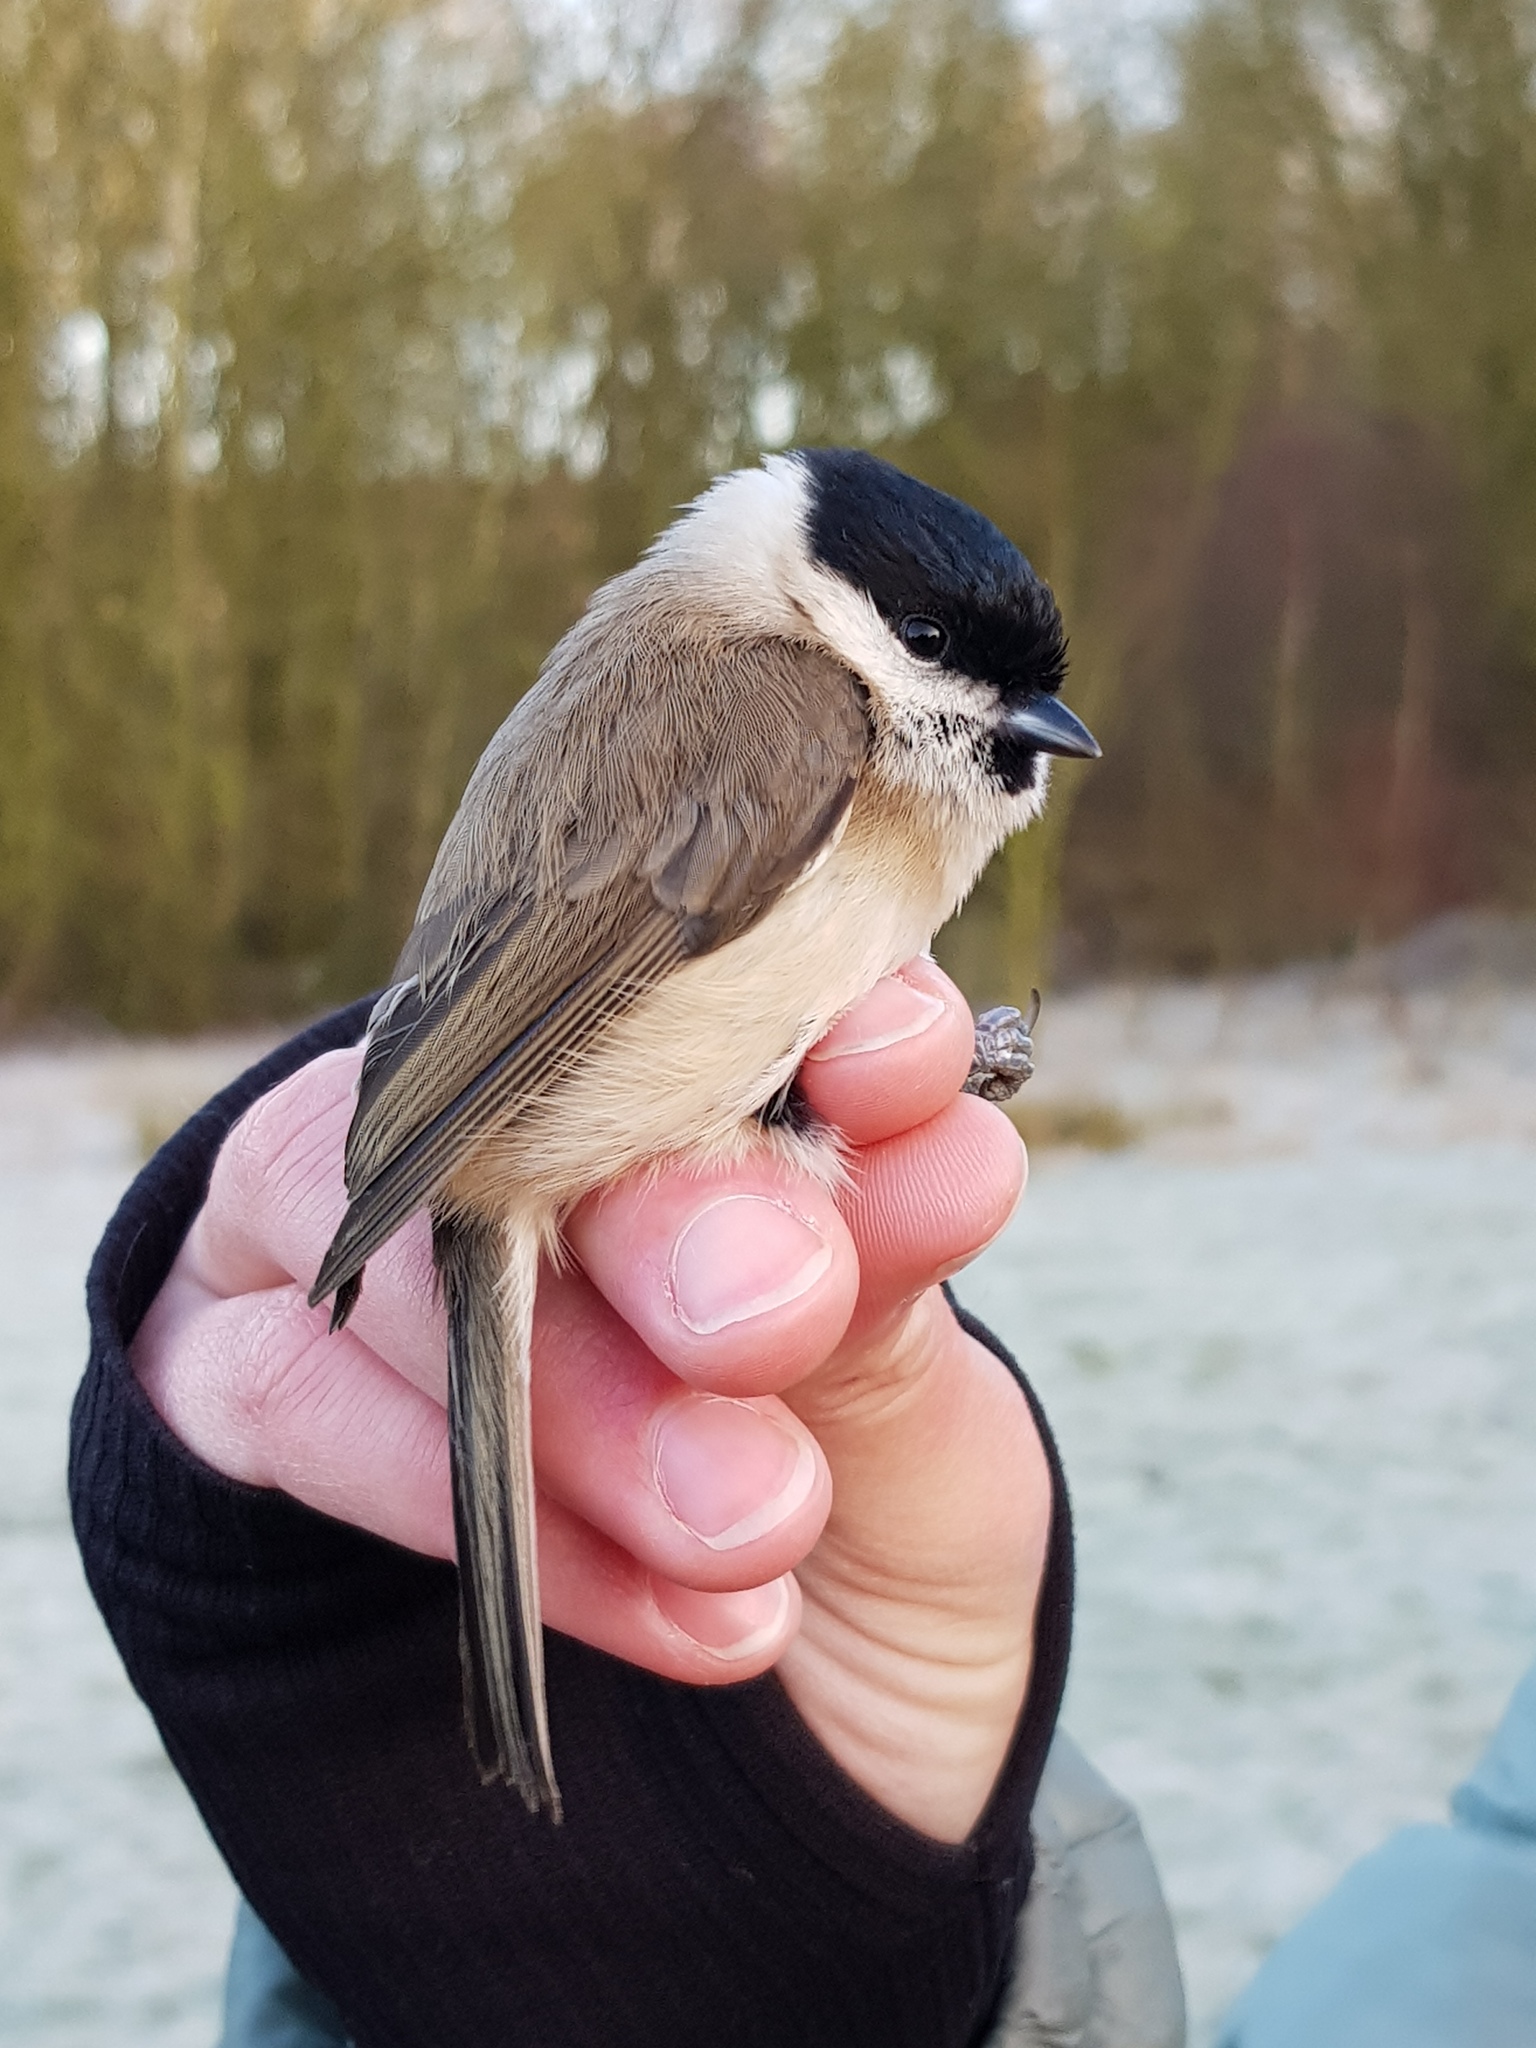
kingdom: Animalia
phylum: Chordata
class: Aves
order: Passeriformes
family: Paridae
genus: Poecile
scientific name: Poecile palustris
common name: Marsh tit
